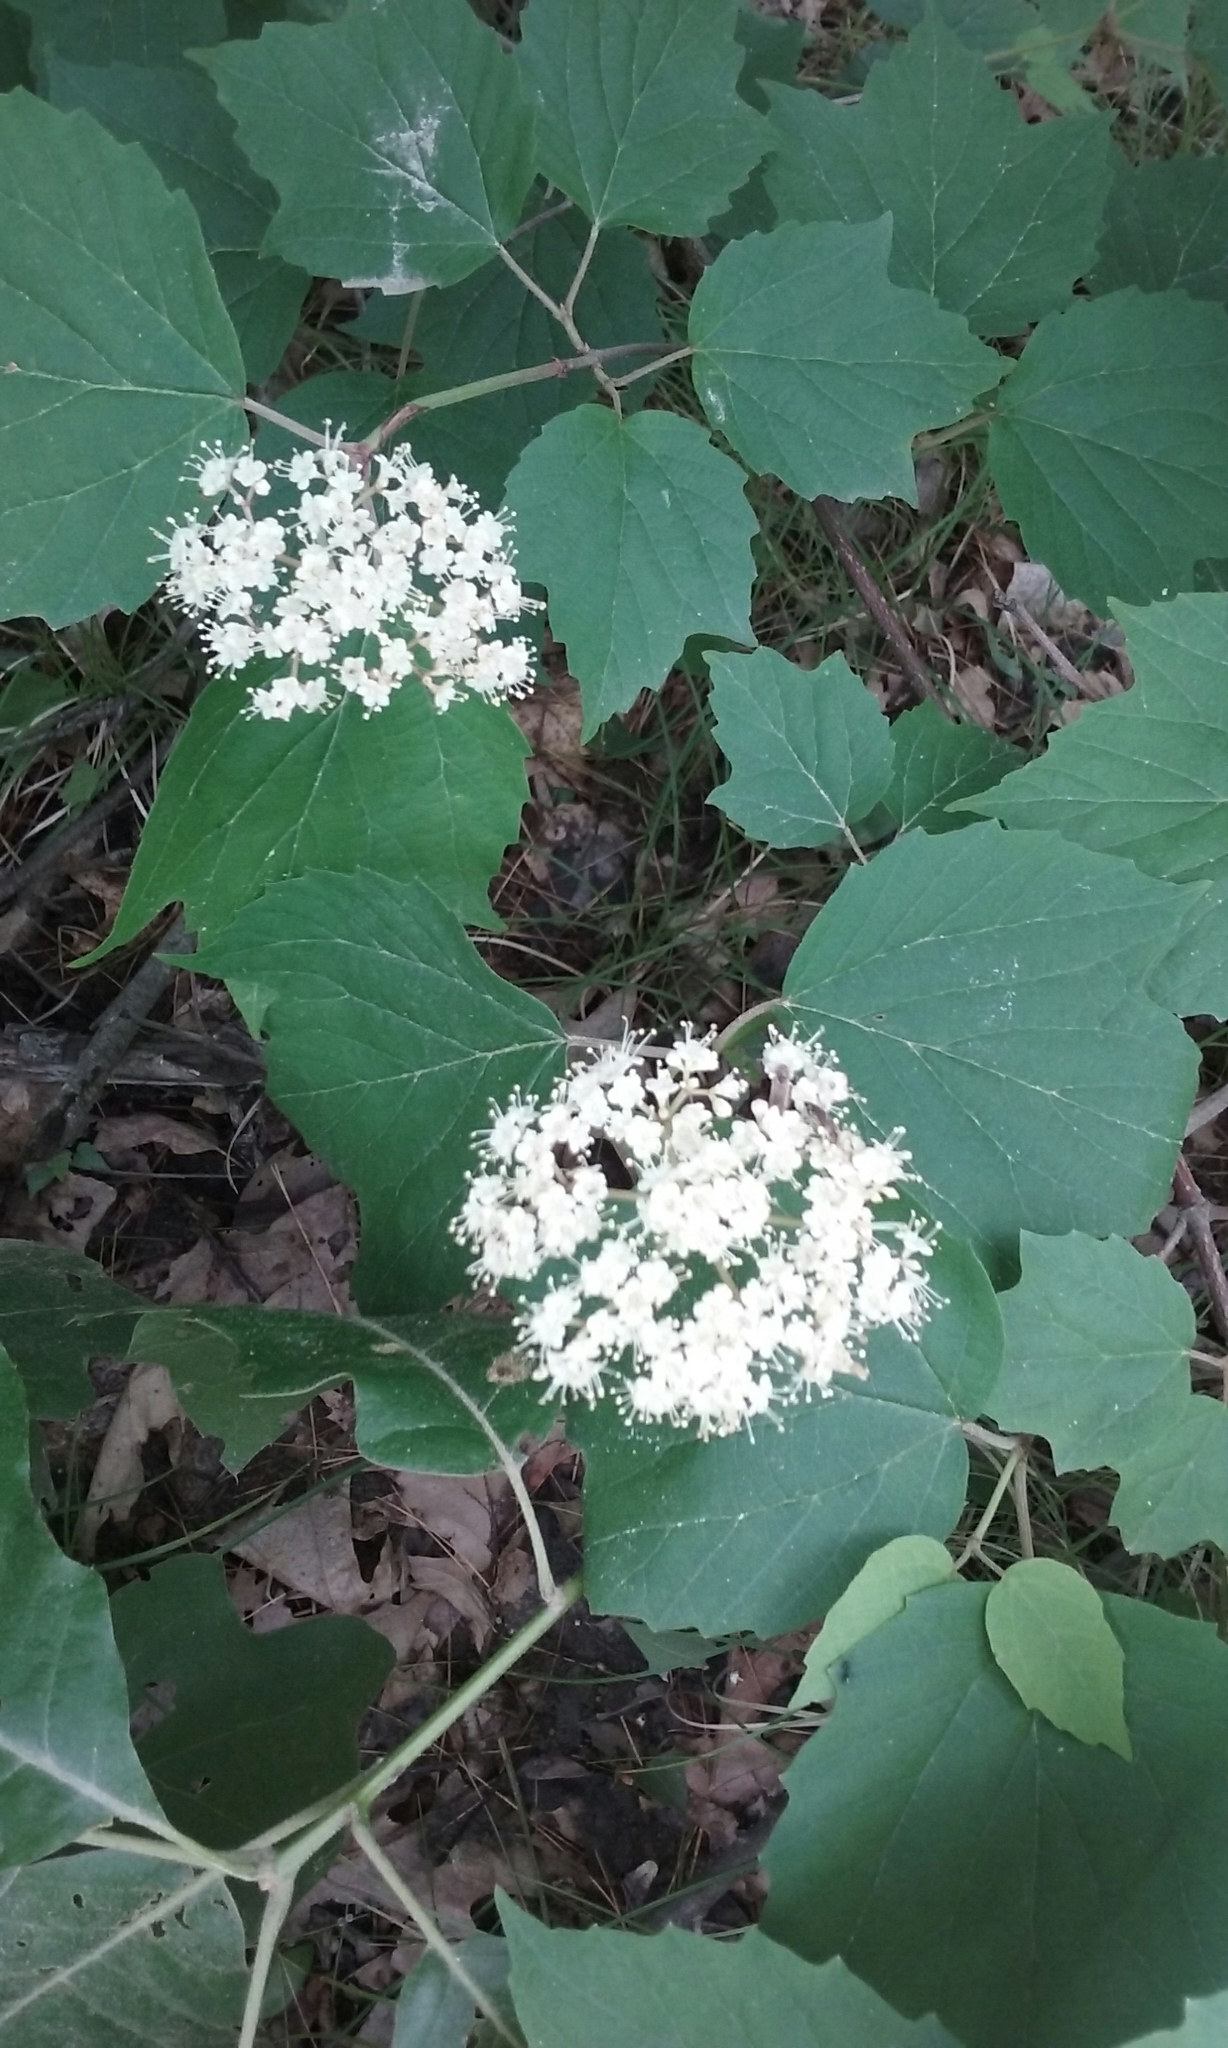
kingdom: Plantae
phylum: Tracheophyta
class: Magnoliopsida
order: Dipsacales
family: Viburnaceae
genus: Viburnum
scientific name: Viburnum acerifolium
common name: Dockmackie
